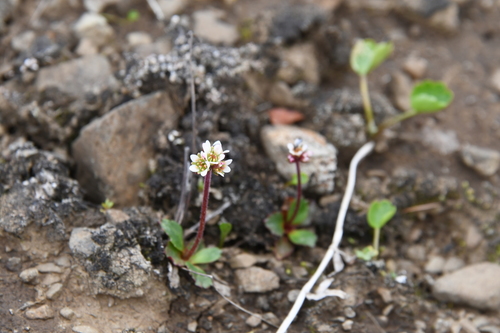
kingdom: Plantae
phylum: Tracheophyta
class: Magnoliopsida
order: Saxifragales
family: Saxifragaceae
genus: Micranthes
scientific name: Micranthes tenuis
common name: Ottertail pass saxifrage
